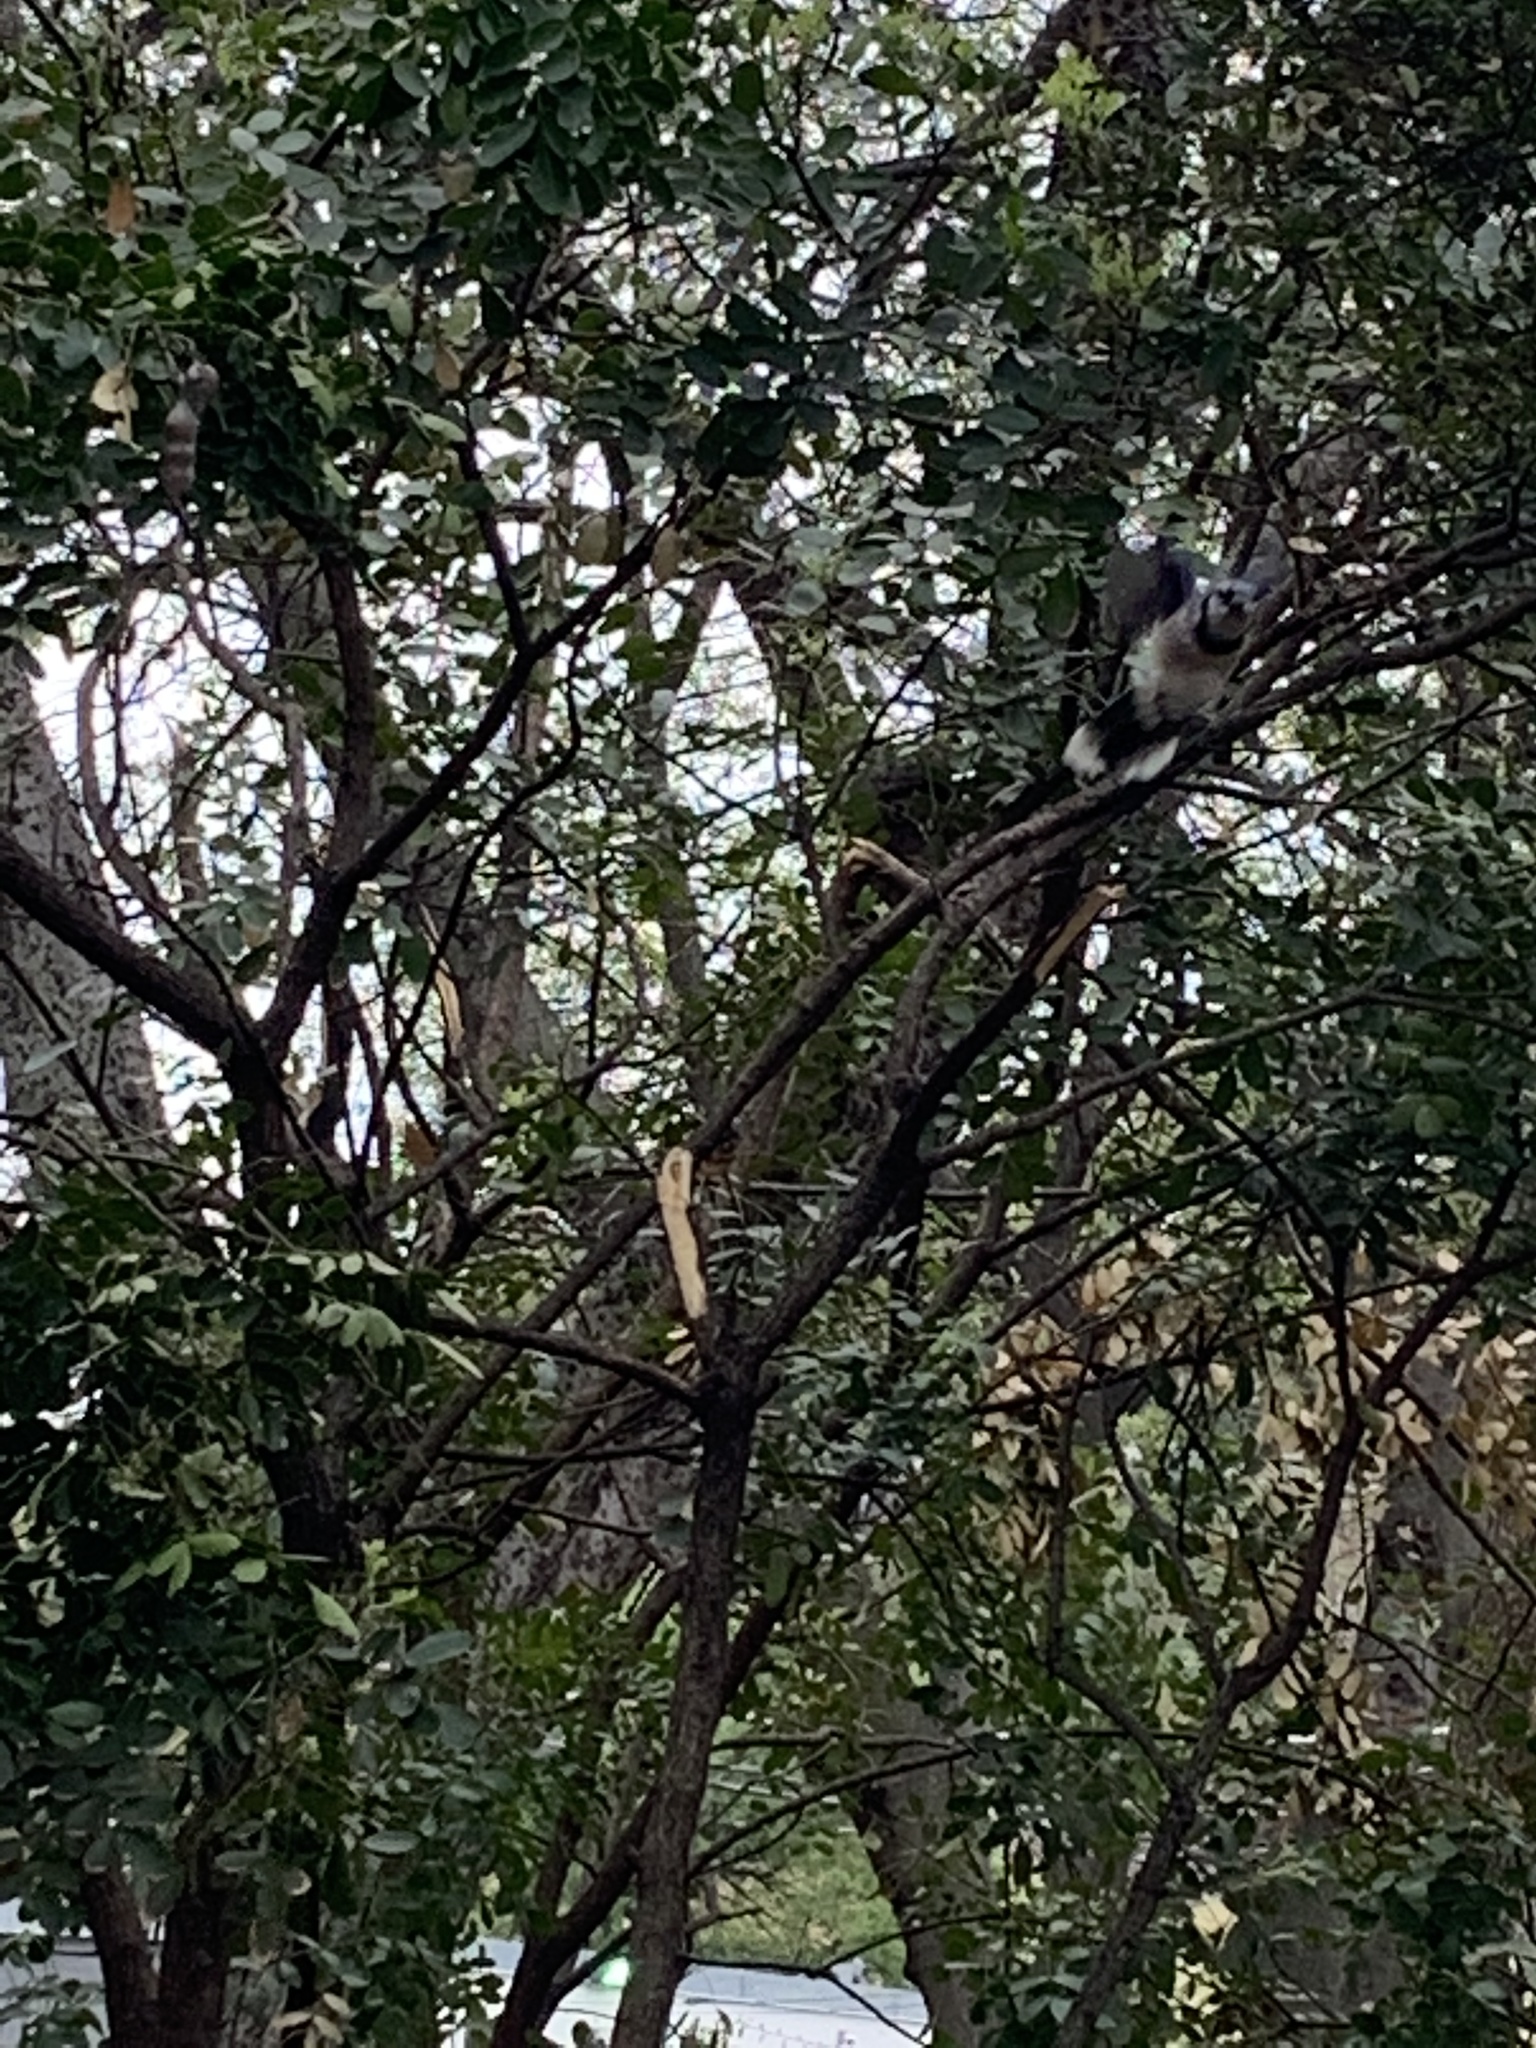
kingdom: Animalia
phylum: Chordata
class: Aves
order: Passeriformes
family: Corvidae
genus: Cyanocitta
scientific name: Cyanocitta cristata
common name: Blue jay
